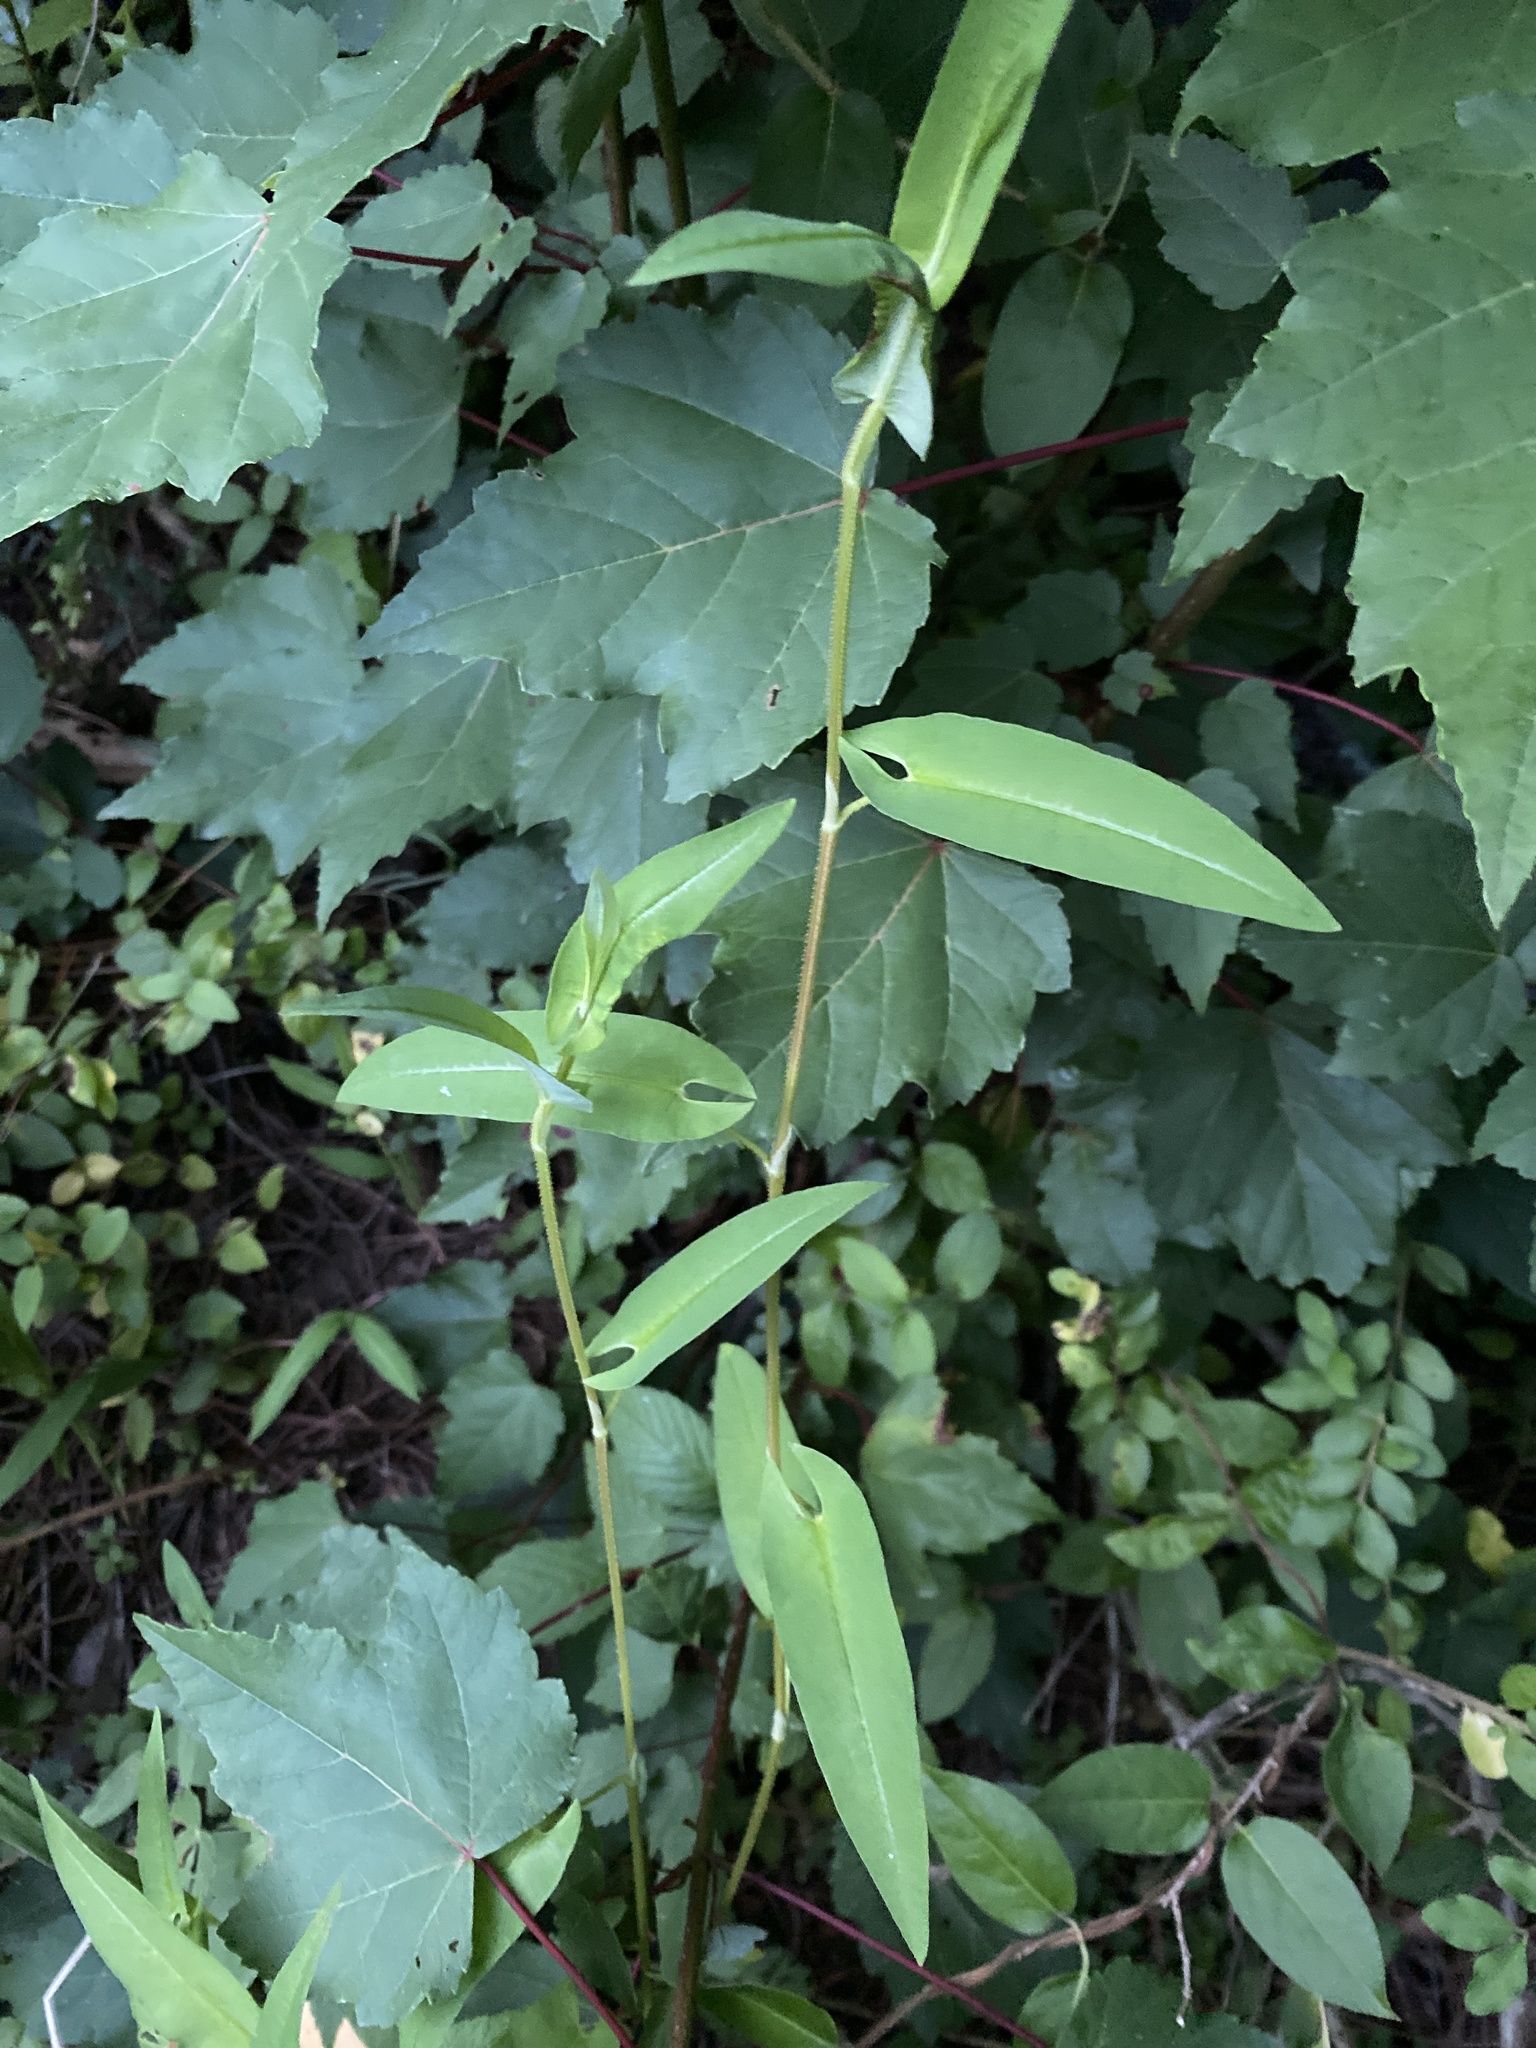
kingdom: Plantae
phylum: Tracheophyta
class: Magnoliopsida
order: Caryophyllales
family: Polygonaceae
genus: Persicaria
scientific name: Persicaria sagittata
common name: American tearthumb
